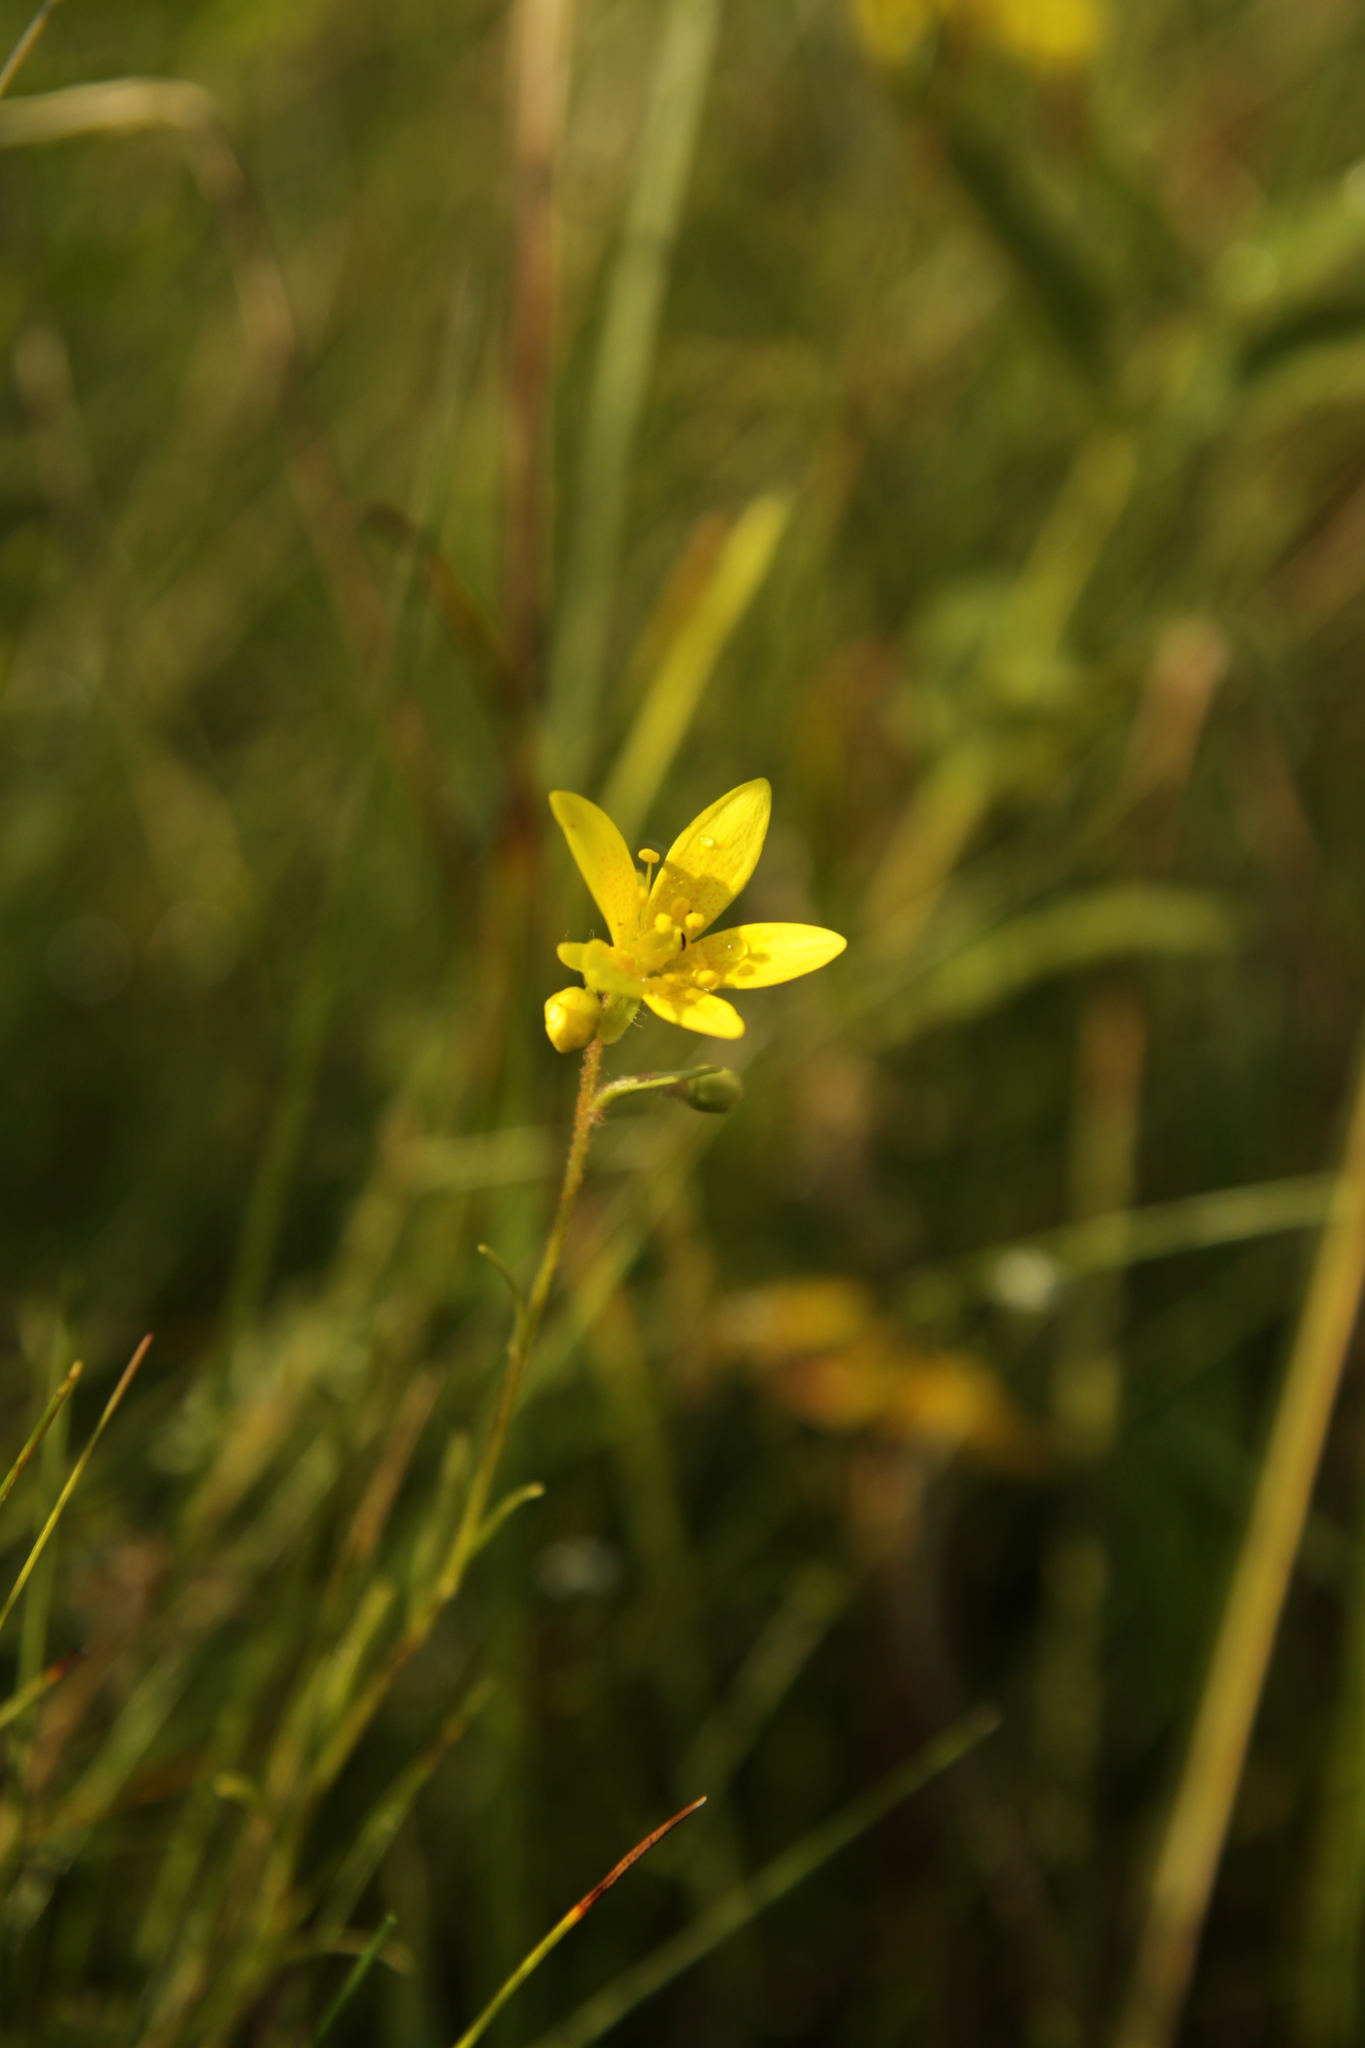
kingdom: Plantae
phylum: Tracheophyta
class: Magnoliopsida
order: Saxifragales
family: Saxifragaceae
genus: Saxifraga
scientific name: Saxifraga hirculus
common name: Yellow marsh saxifrage
